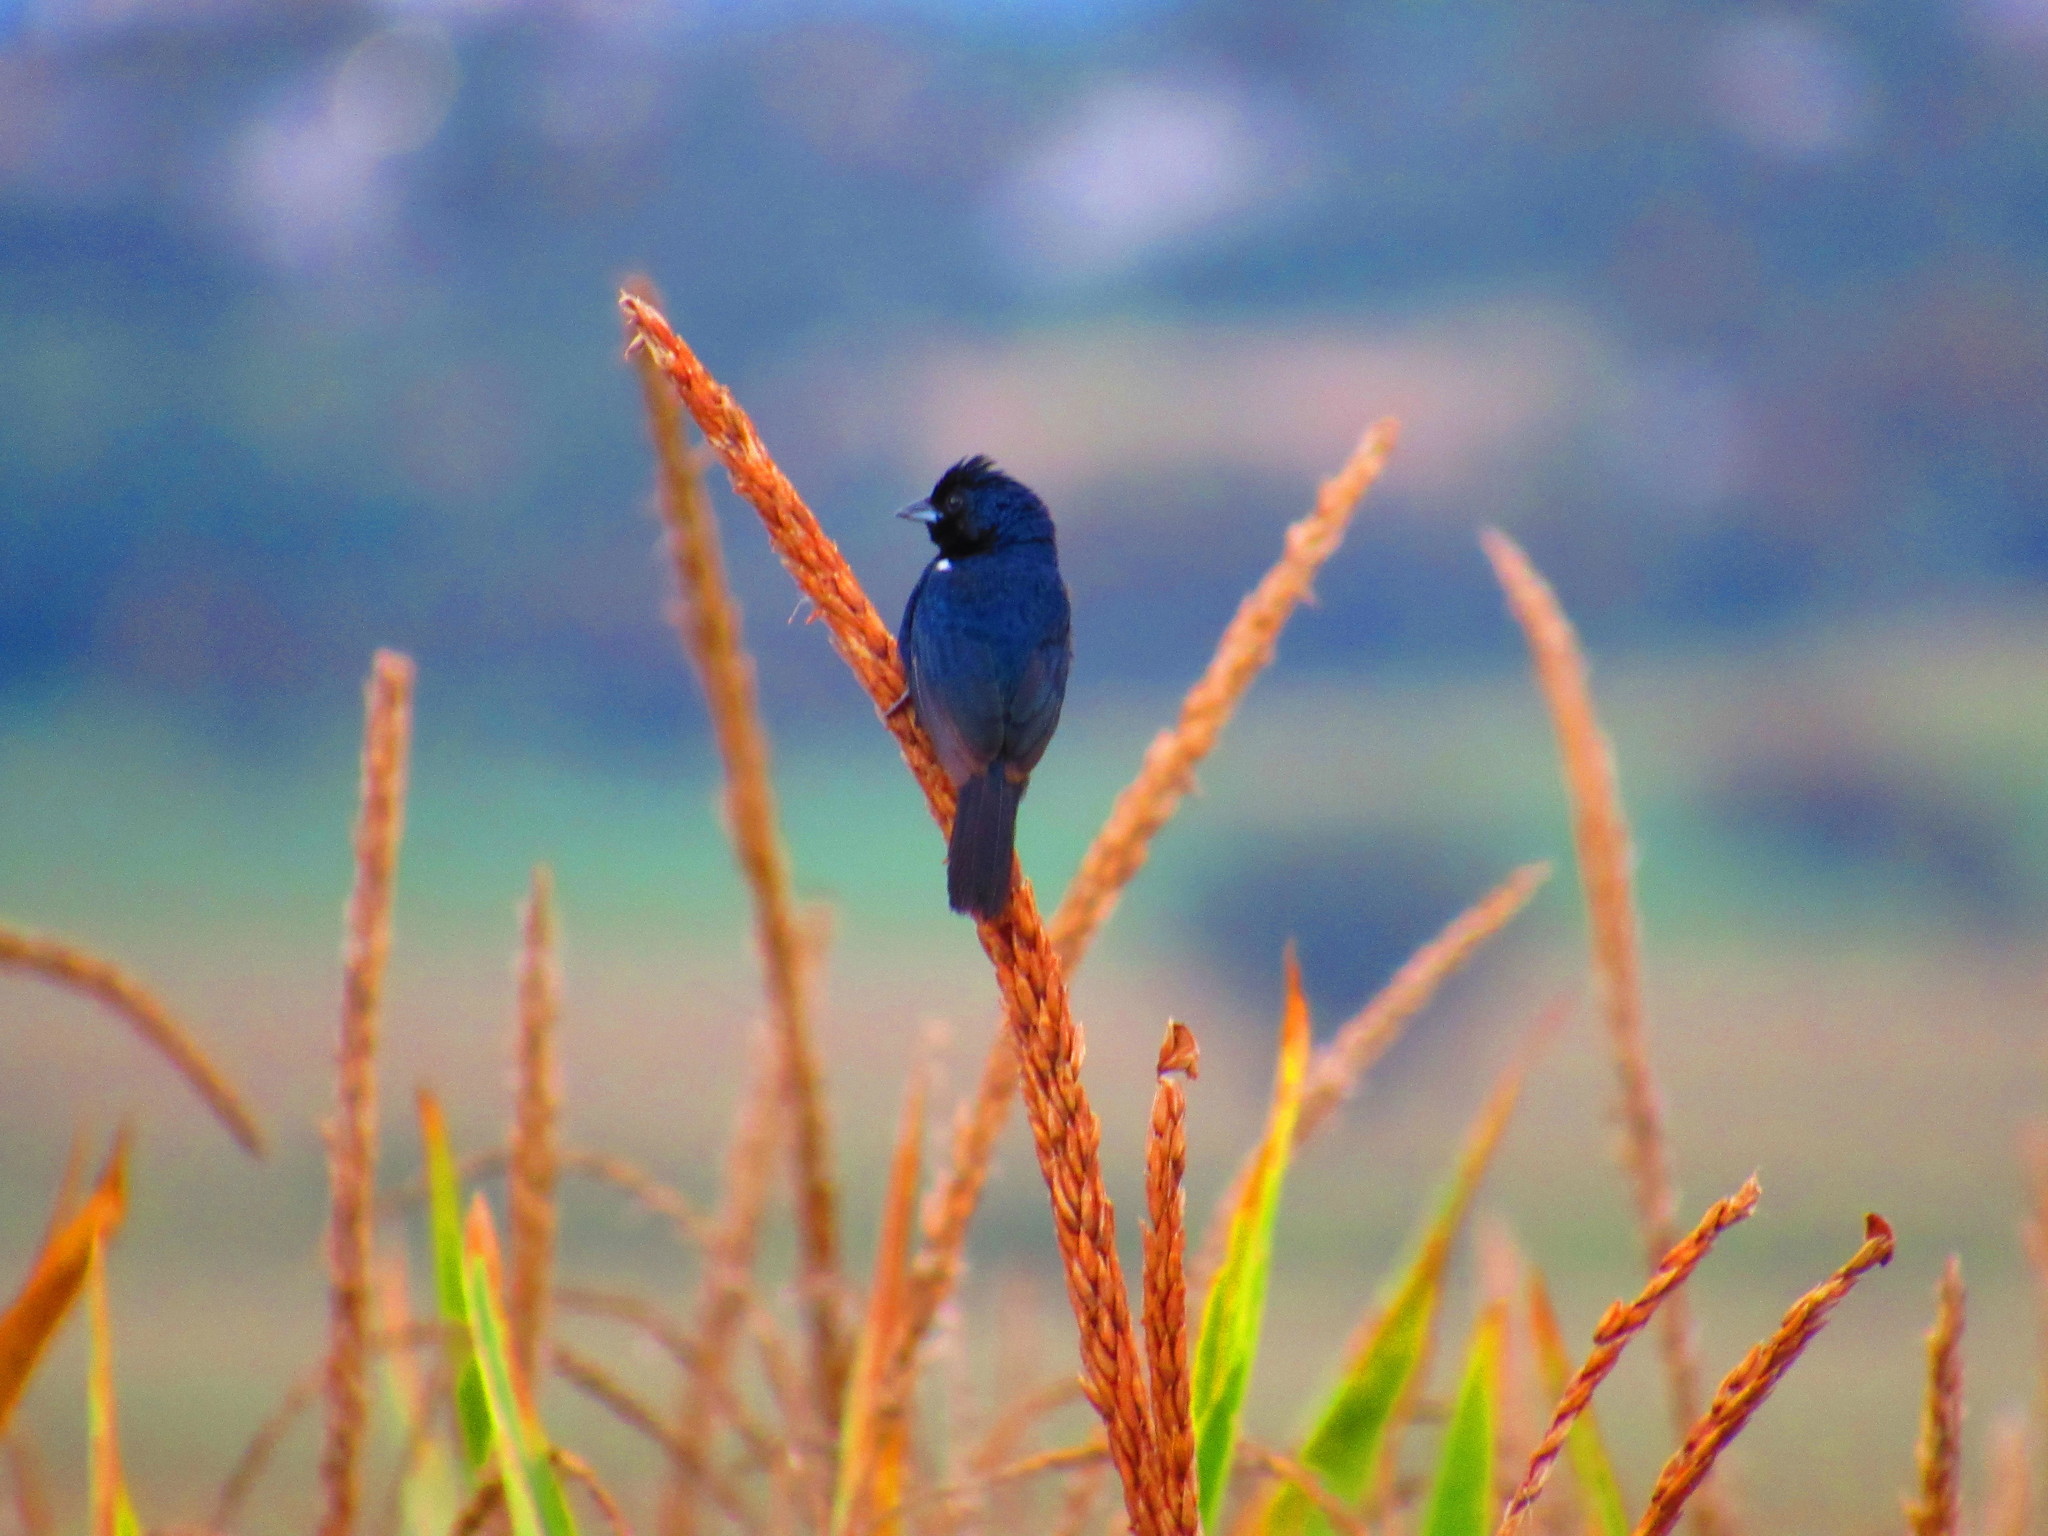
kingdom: Animalia
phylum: Chordata
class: Aves
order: Passeriformes
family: Thraupidae
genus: Volatinia
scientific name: Volatinia jacarina
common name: Blue-black grassquit
